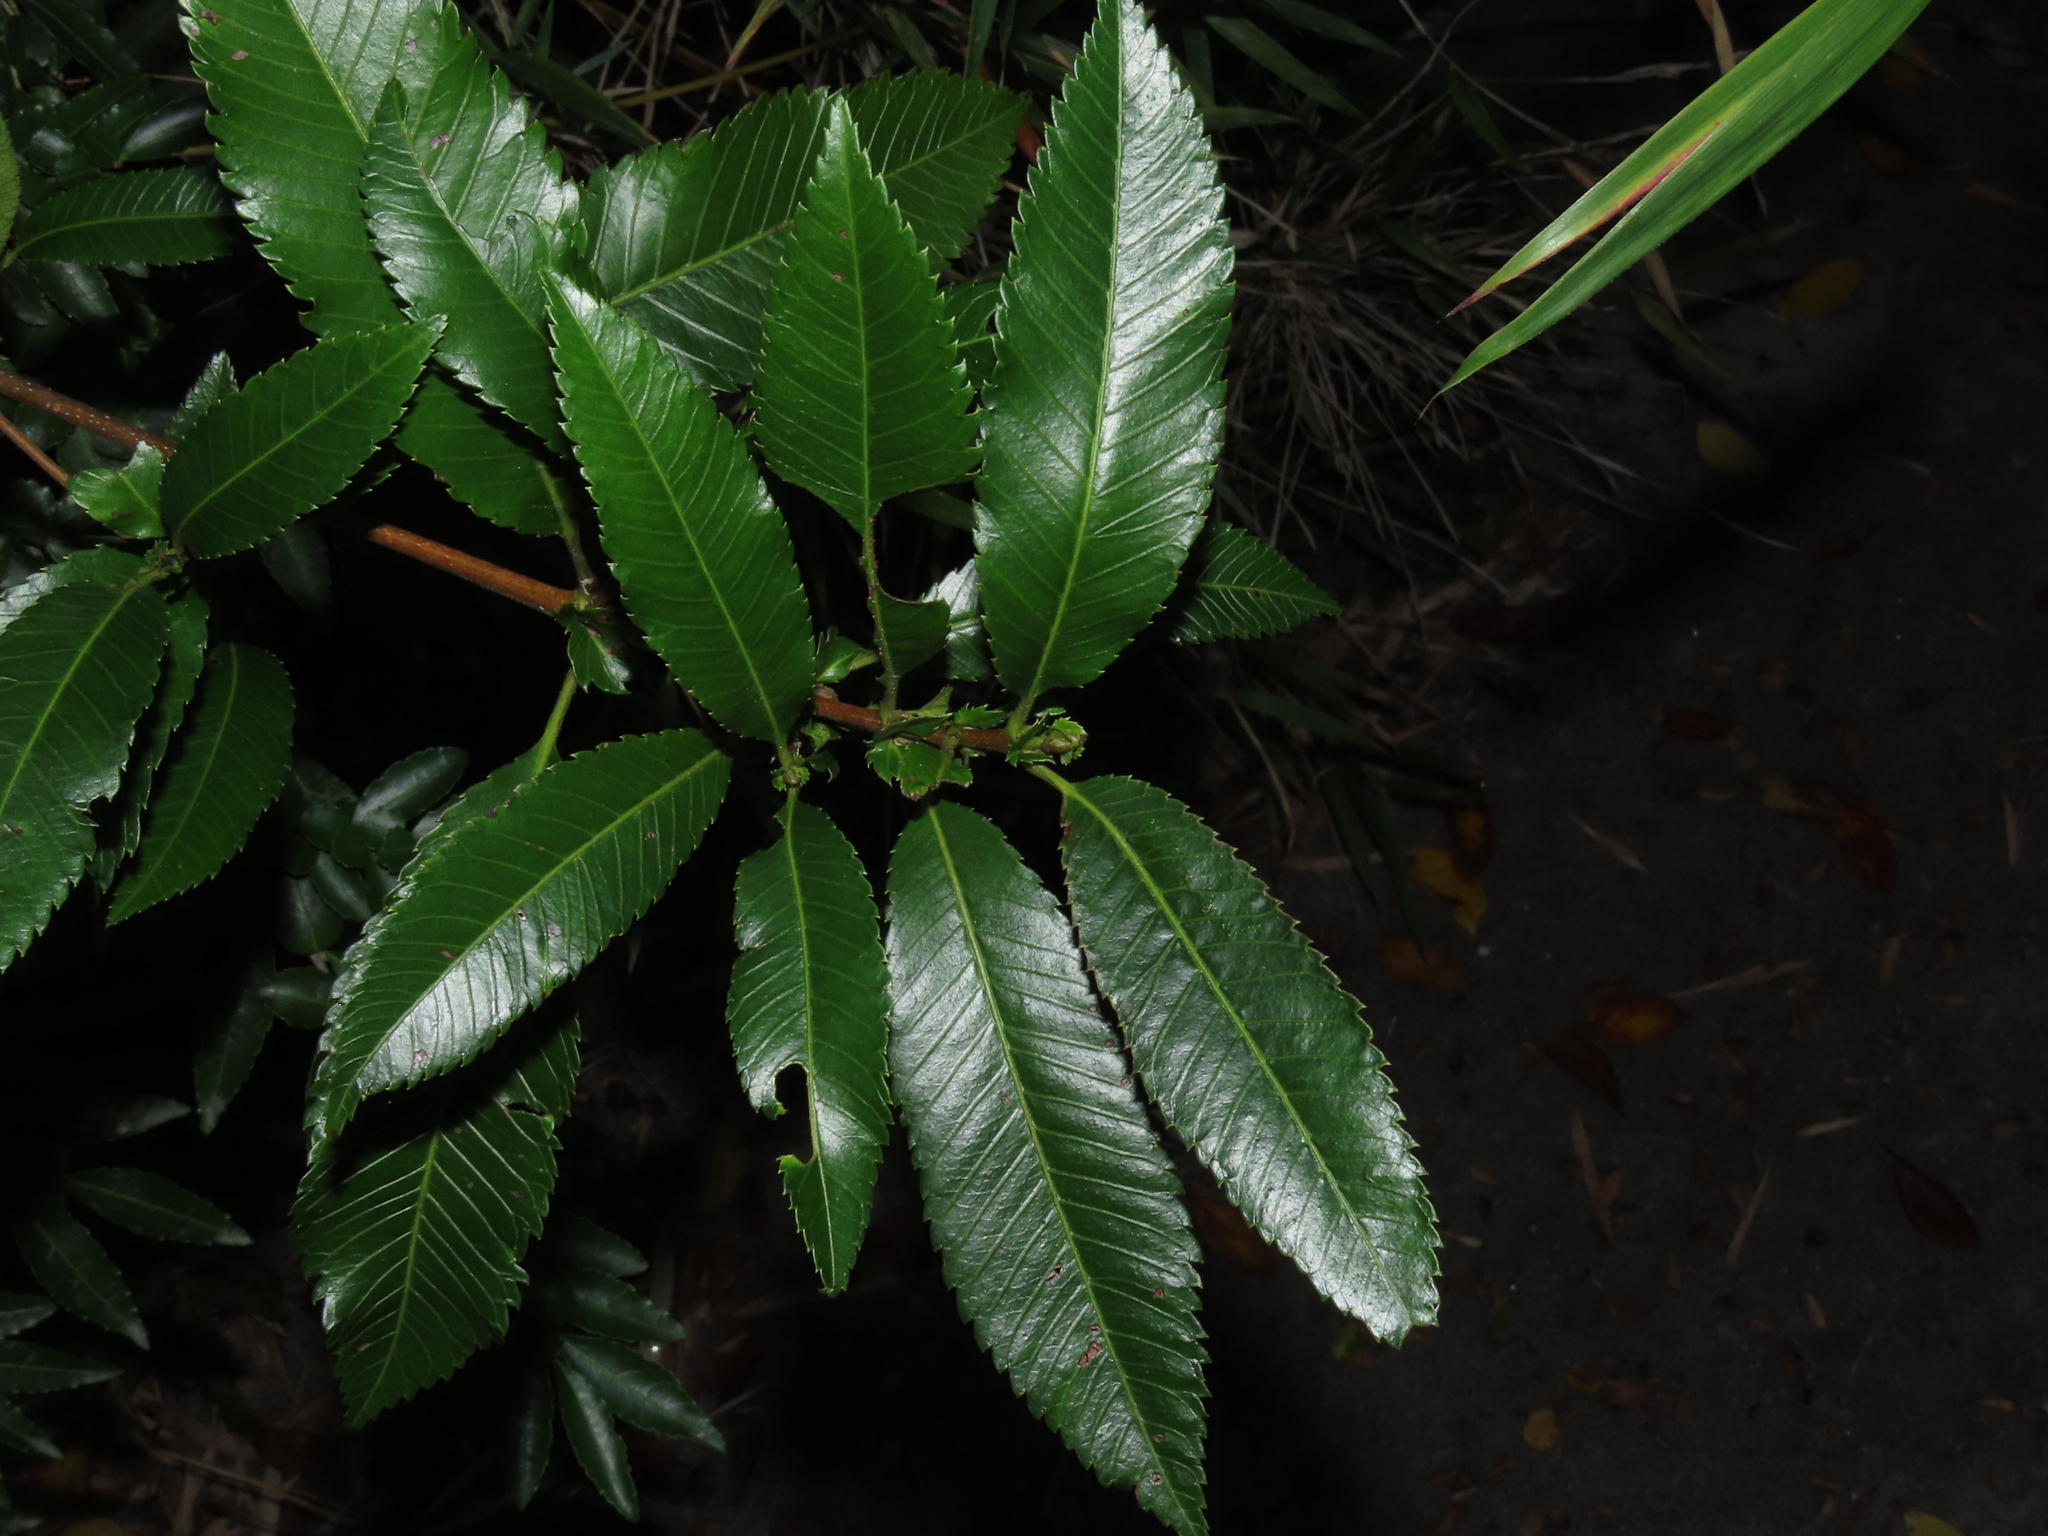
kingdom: Plantae
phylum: Tracheophyta
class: Magnoliopsida
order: Oxalidales
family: Cunoniaceae
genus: Caldcluvia
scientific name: Caldcluvia paniculata
